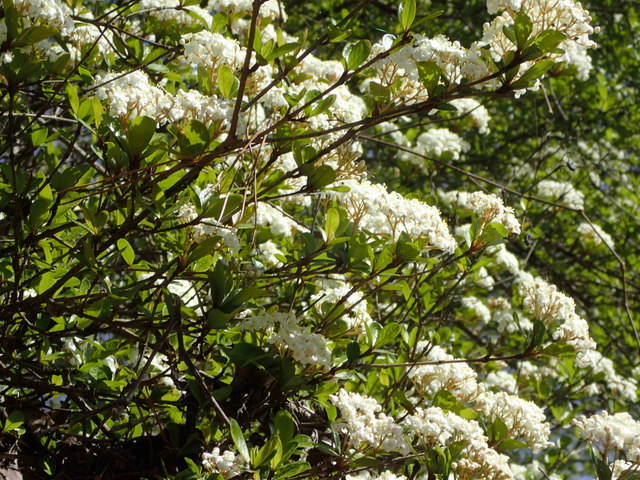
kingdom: Plantae
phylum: Tracheophyta
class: Magnoliopsida
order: Dipsacales
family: Viburnaceae
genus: Viburnum
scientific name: Viburnum obovatum
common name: Walter's viburnum
